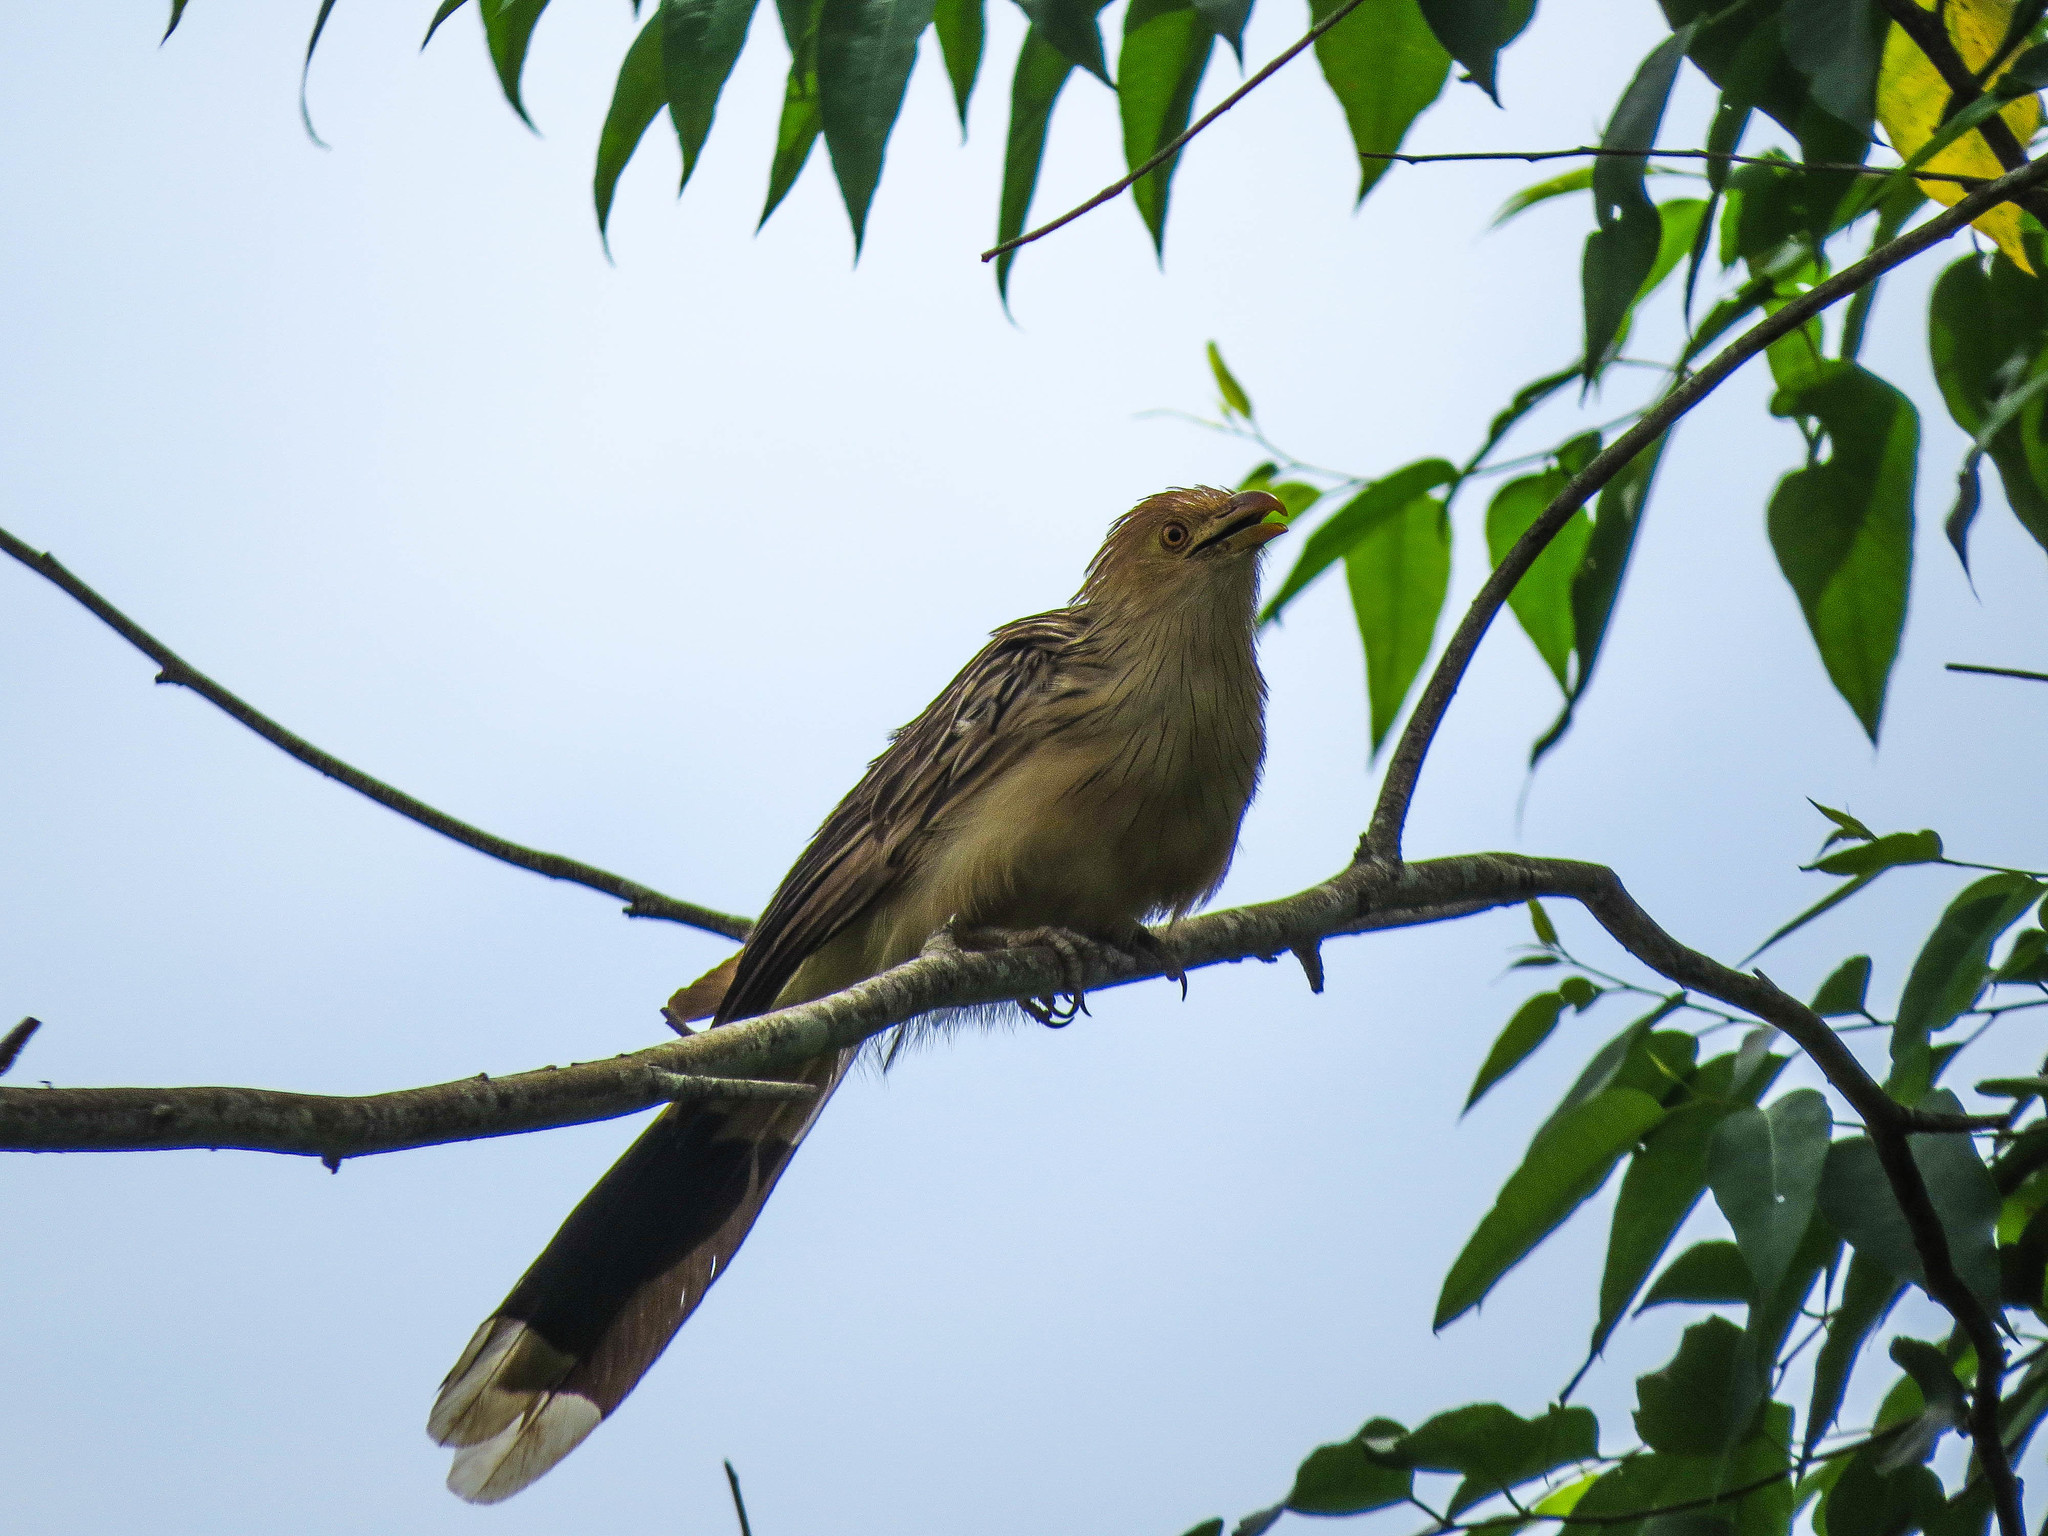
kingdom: Animalia
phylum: Chordata
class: Aves
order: Cuculiformes
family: Cuculidae
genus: Guira
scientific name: Guira guira
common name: Guira cuckoo
